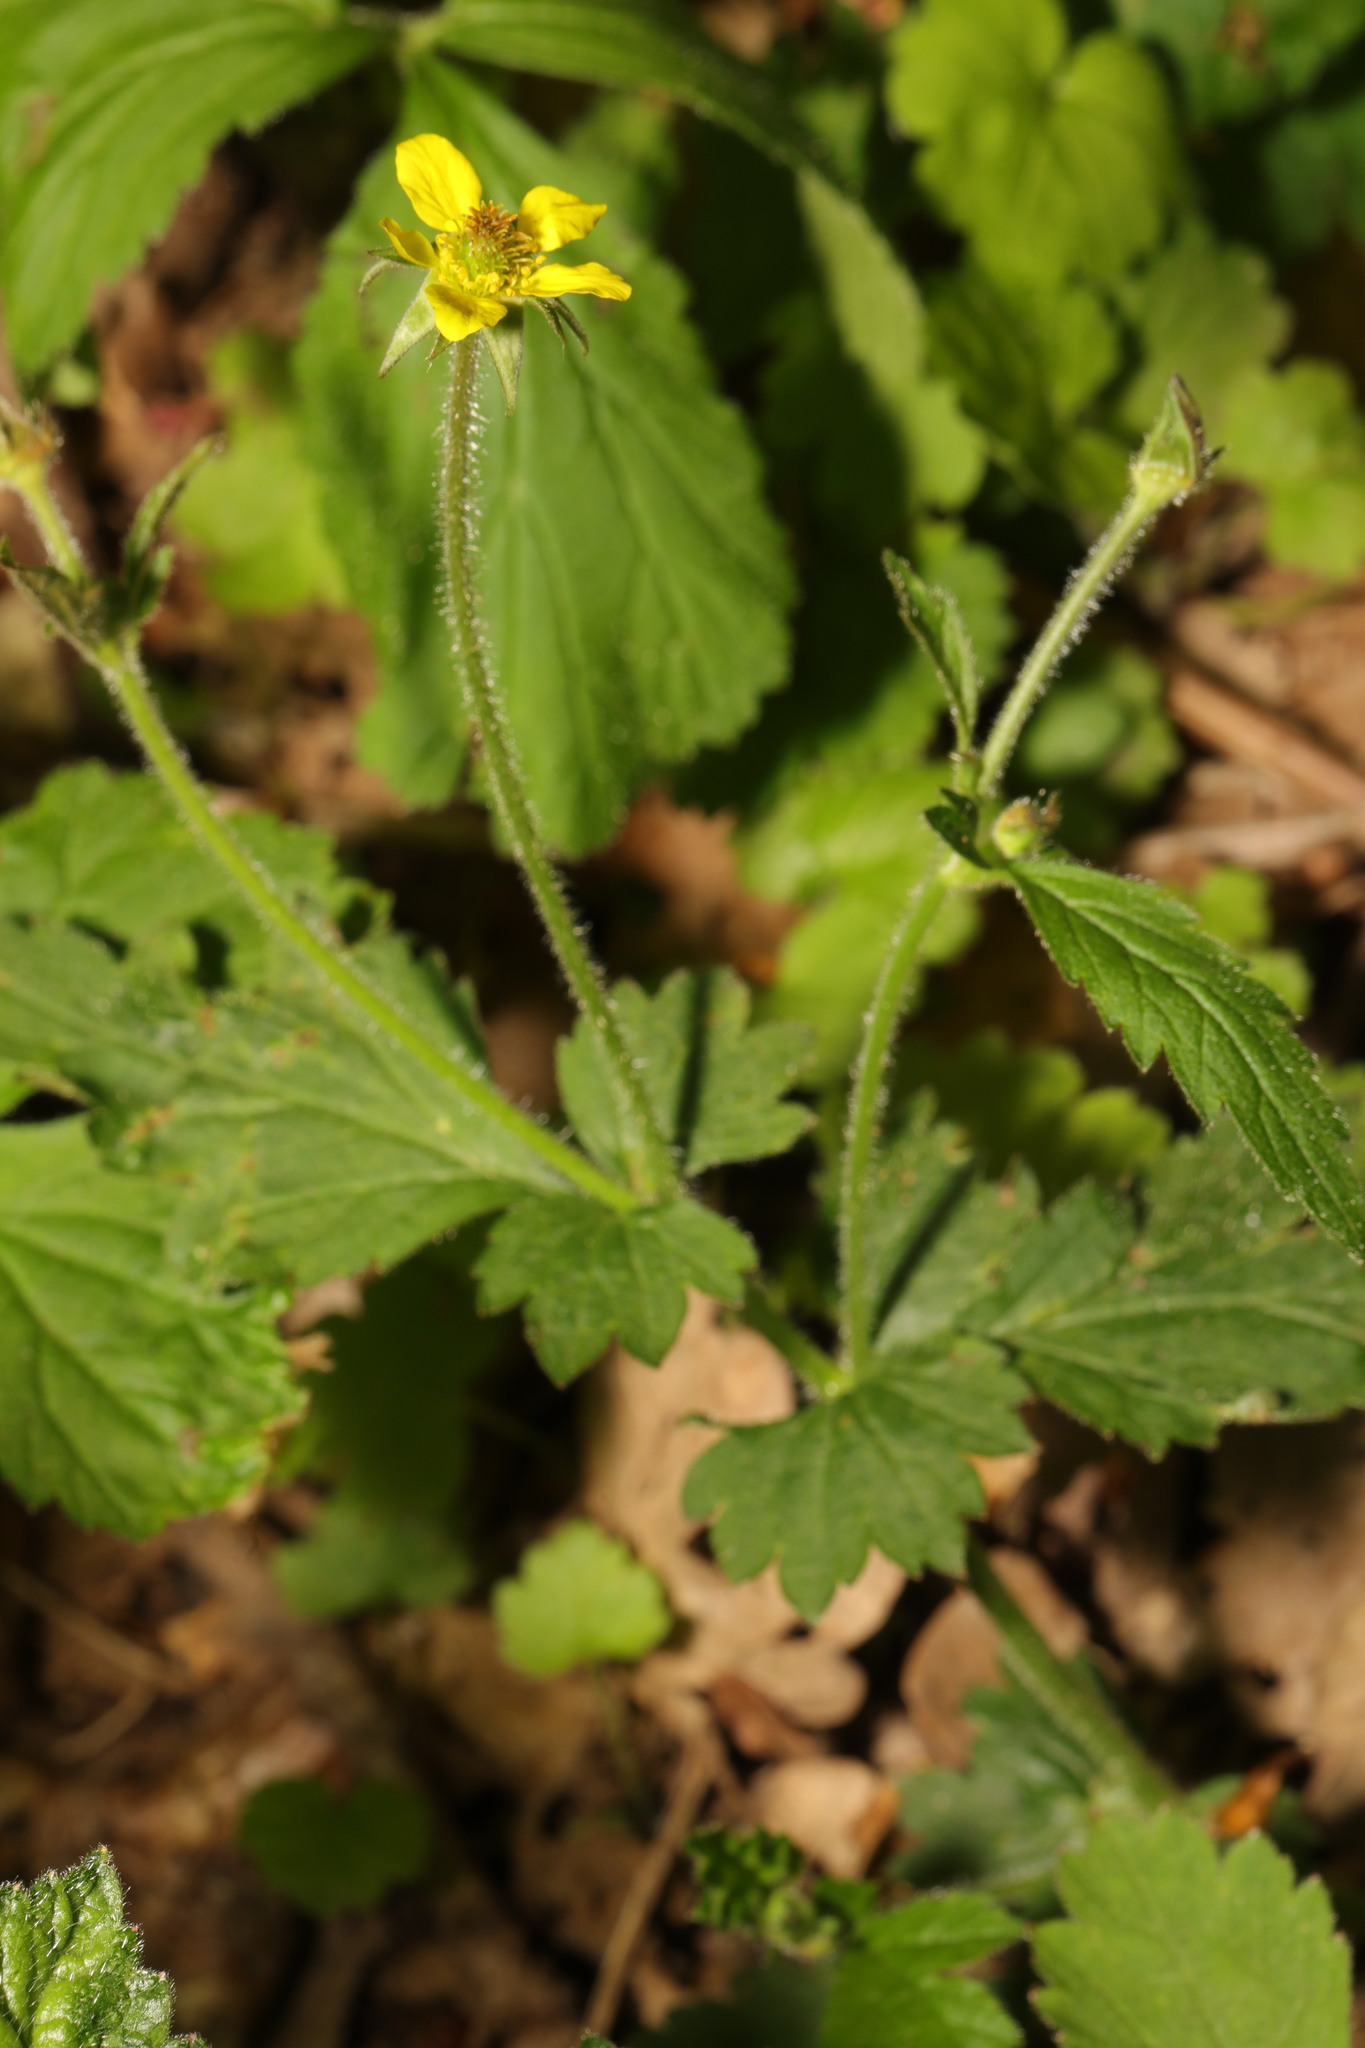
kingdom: Plantae
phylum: Tracheophyta
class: Magnoliopsida
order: Rosales
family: Rosaceae
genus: Geum
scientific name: Geum urbanum
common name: Wood avens
